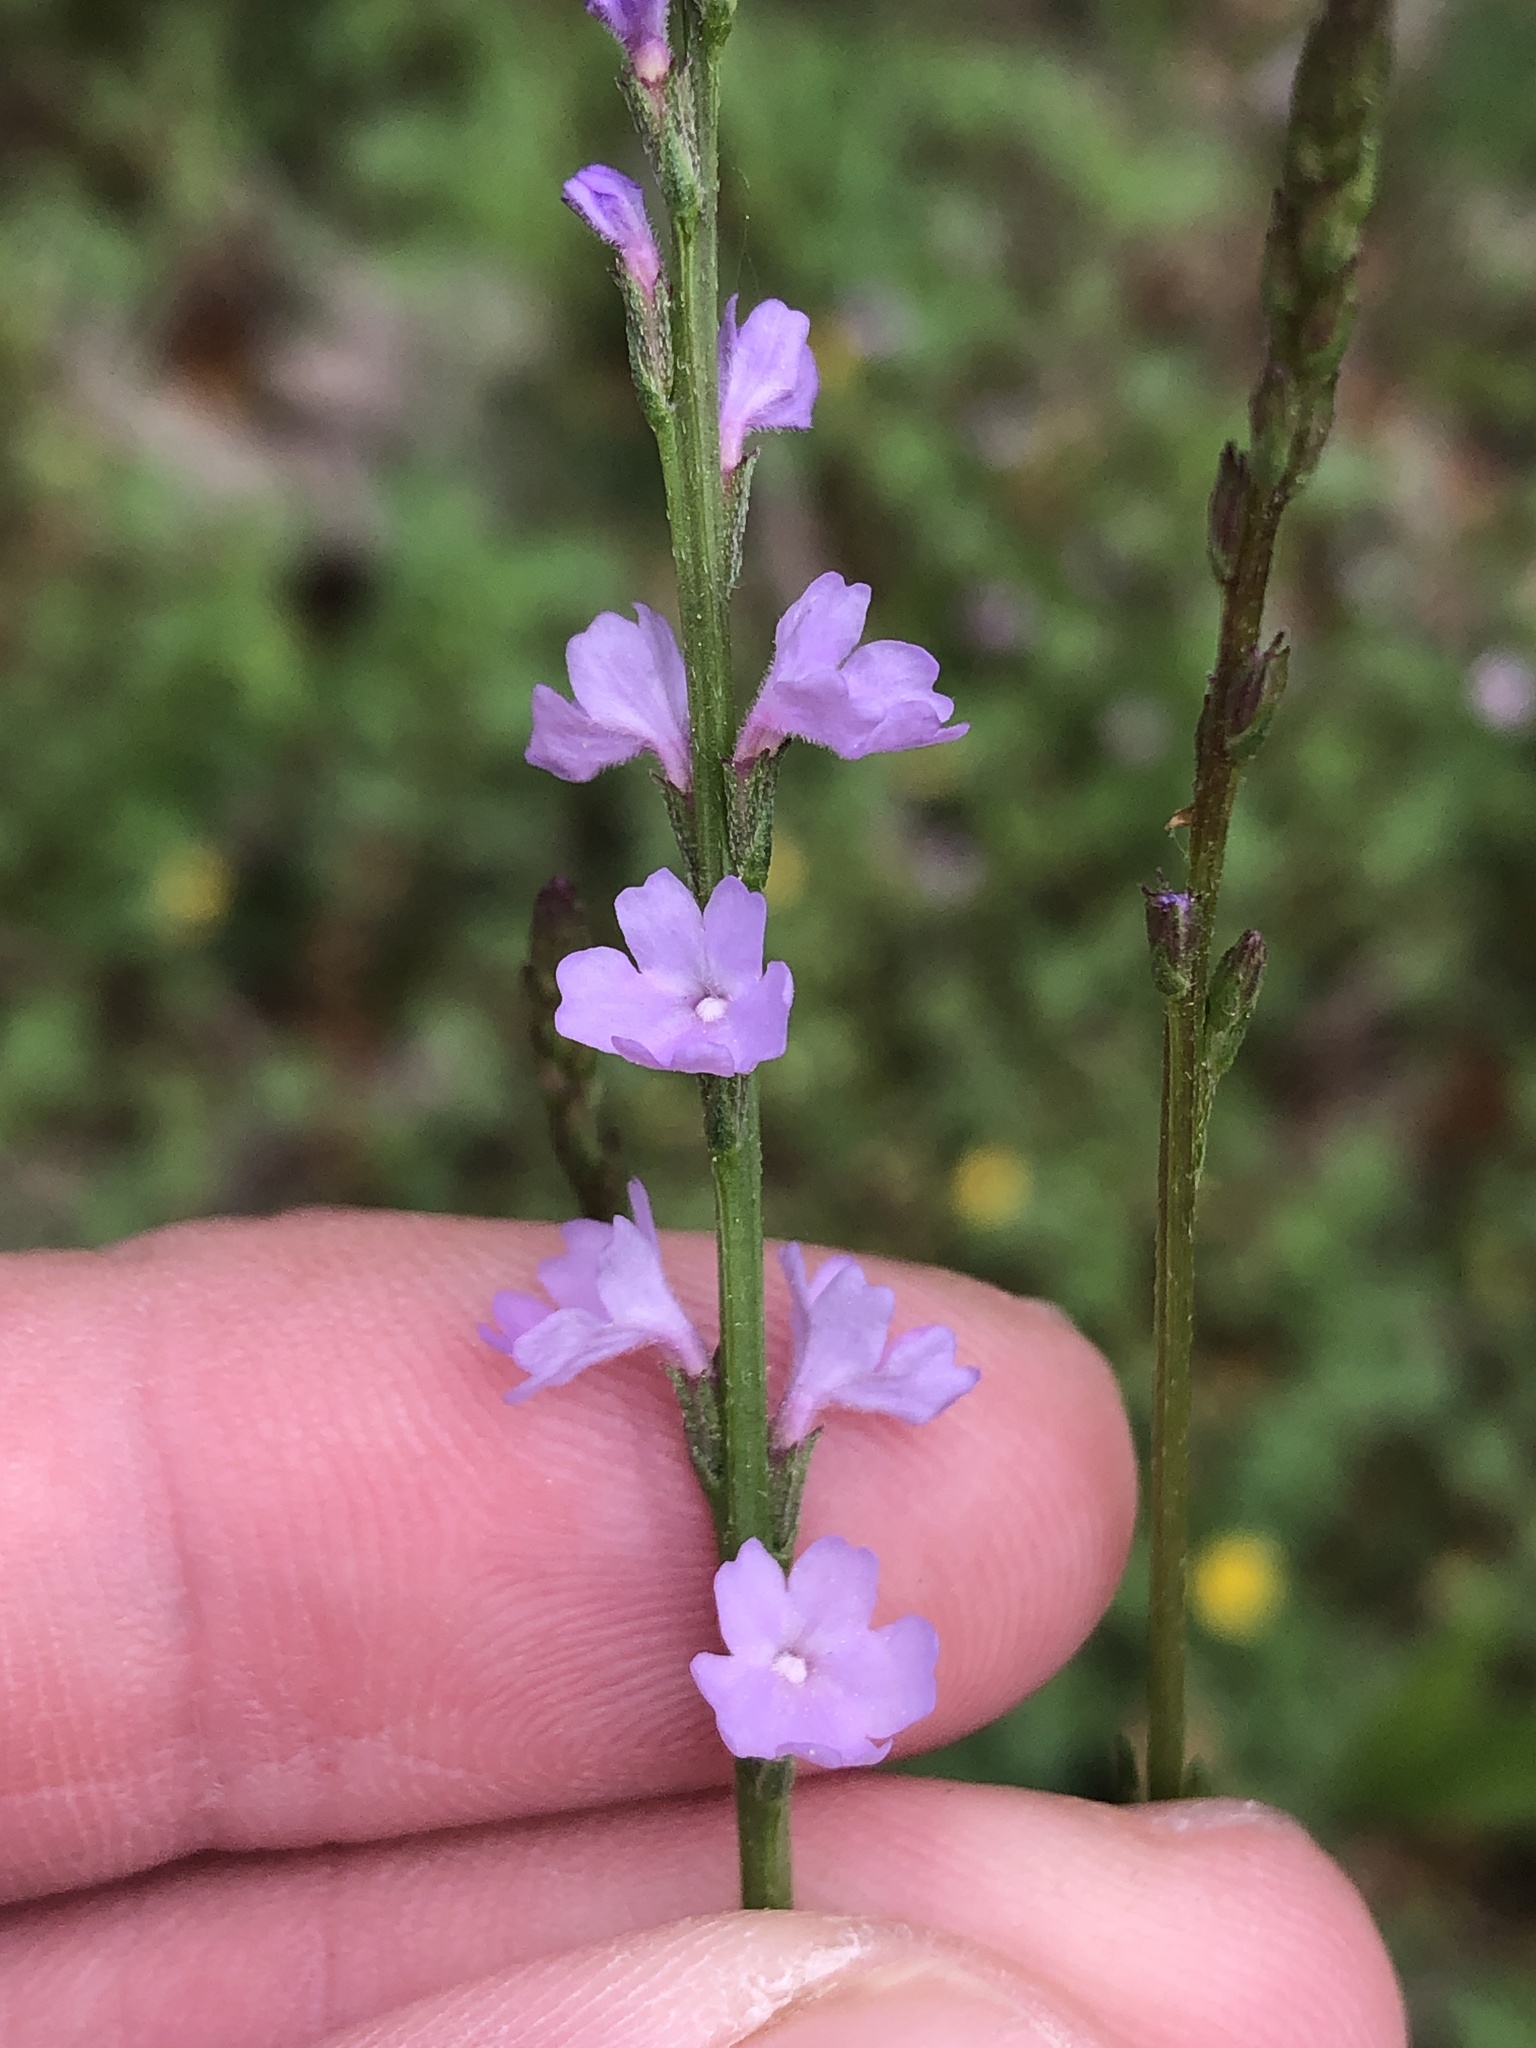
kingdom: Plantae
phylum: Tracheophyta
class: Magnoliopsida
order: Lamiales
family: Verbenaceae
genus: Verbena
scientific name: Verbena halei
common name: Texas vervain
